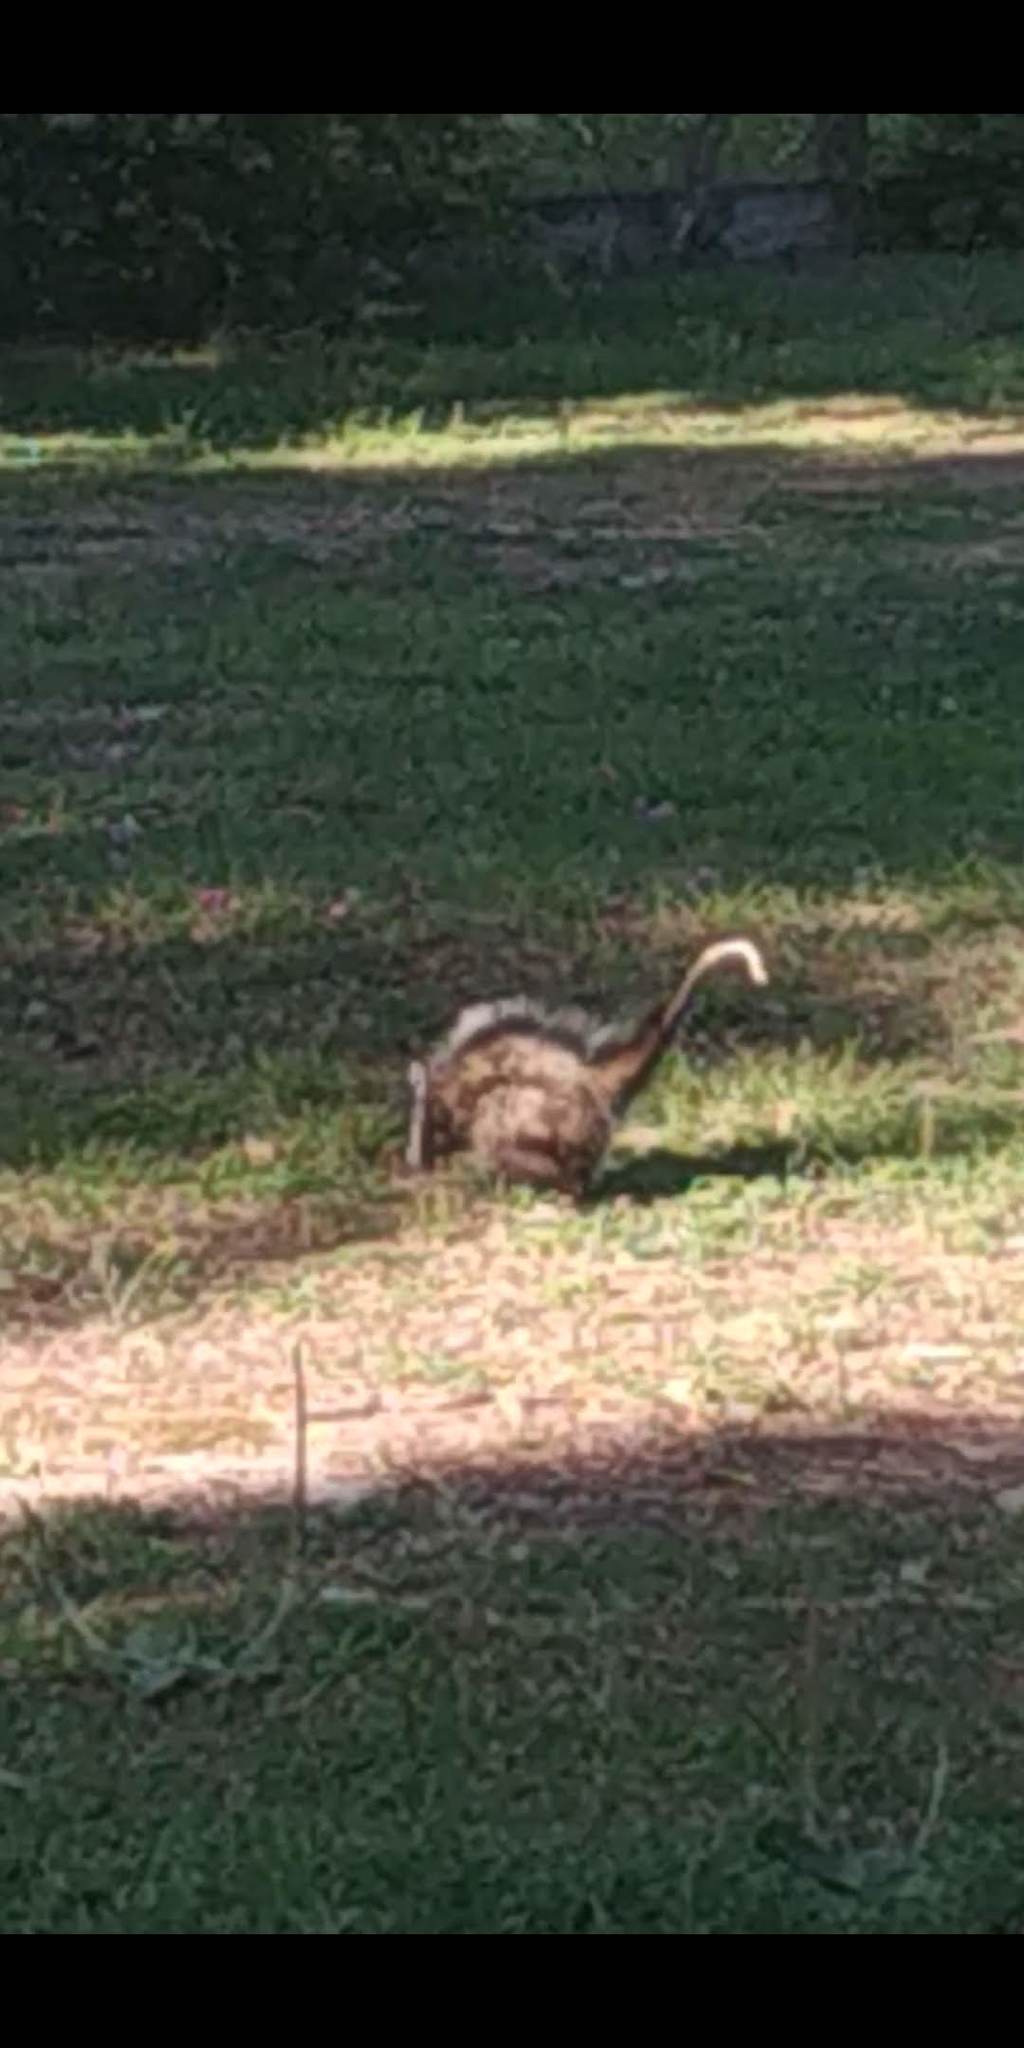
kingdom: Animalia
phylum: Chordata
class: Mammalia
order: Didelphimorphia
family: Didelphidae
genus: Didelphis
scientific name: Didelphis albiventris
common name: White-eared opossum
